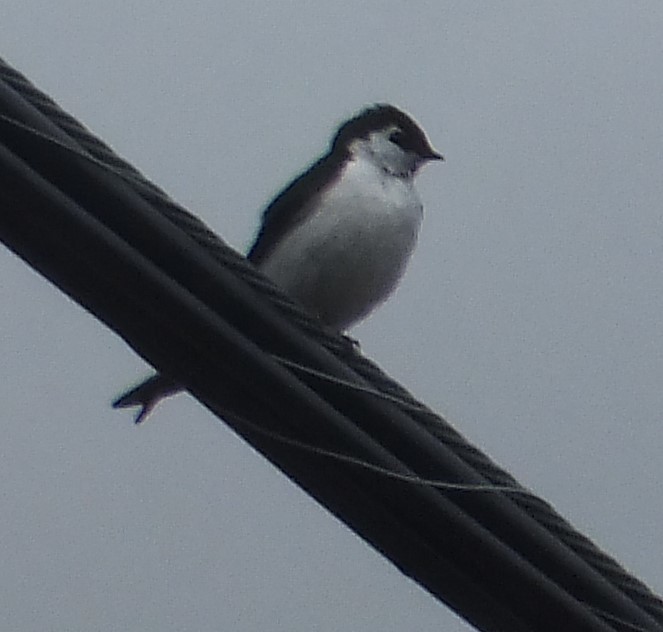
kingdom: Animalia
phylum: Chordata
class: Aves
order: Passeriformes
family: Hirundinidae
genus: Tachycineta
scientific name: Tachycineta thalassina
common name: Violet-green swallow
